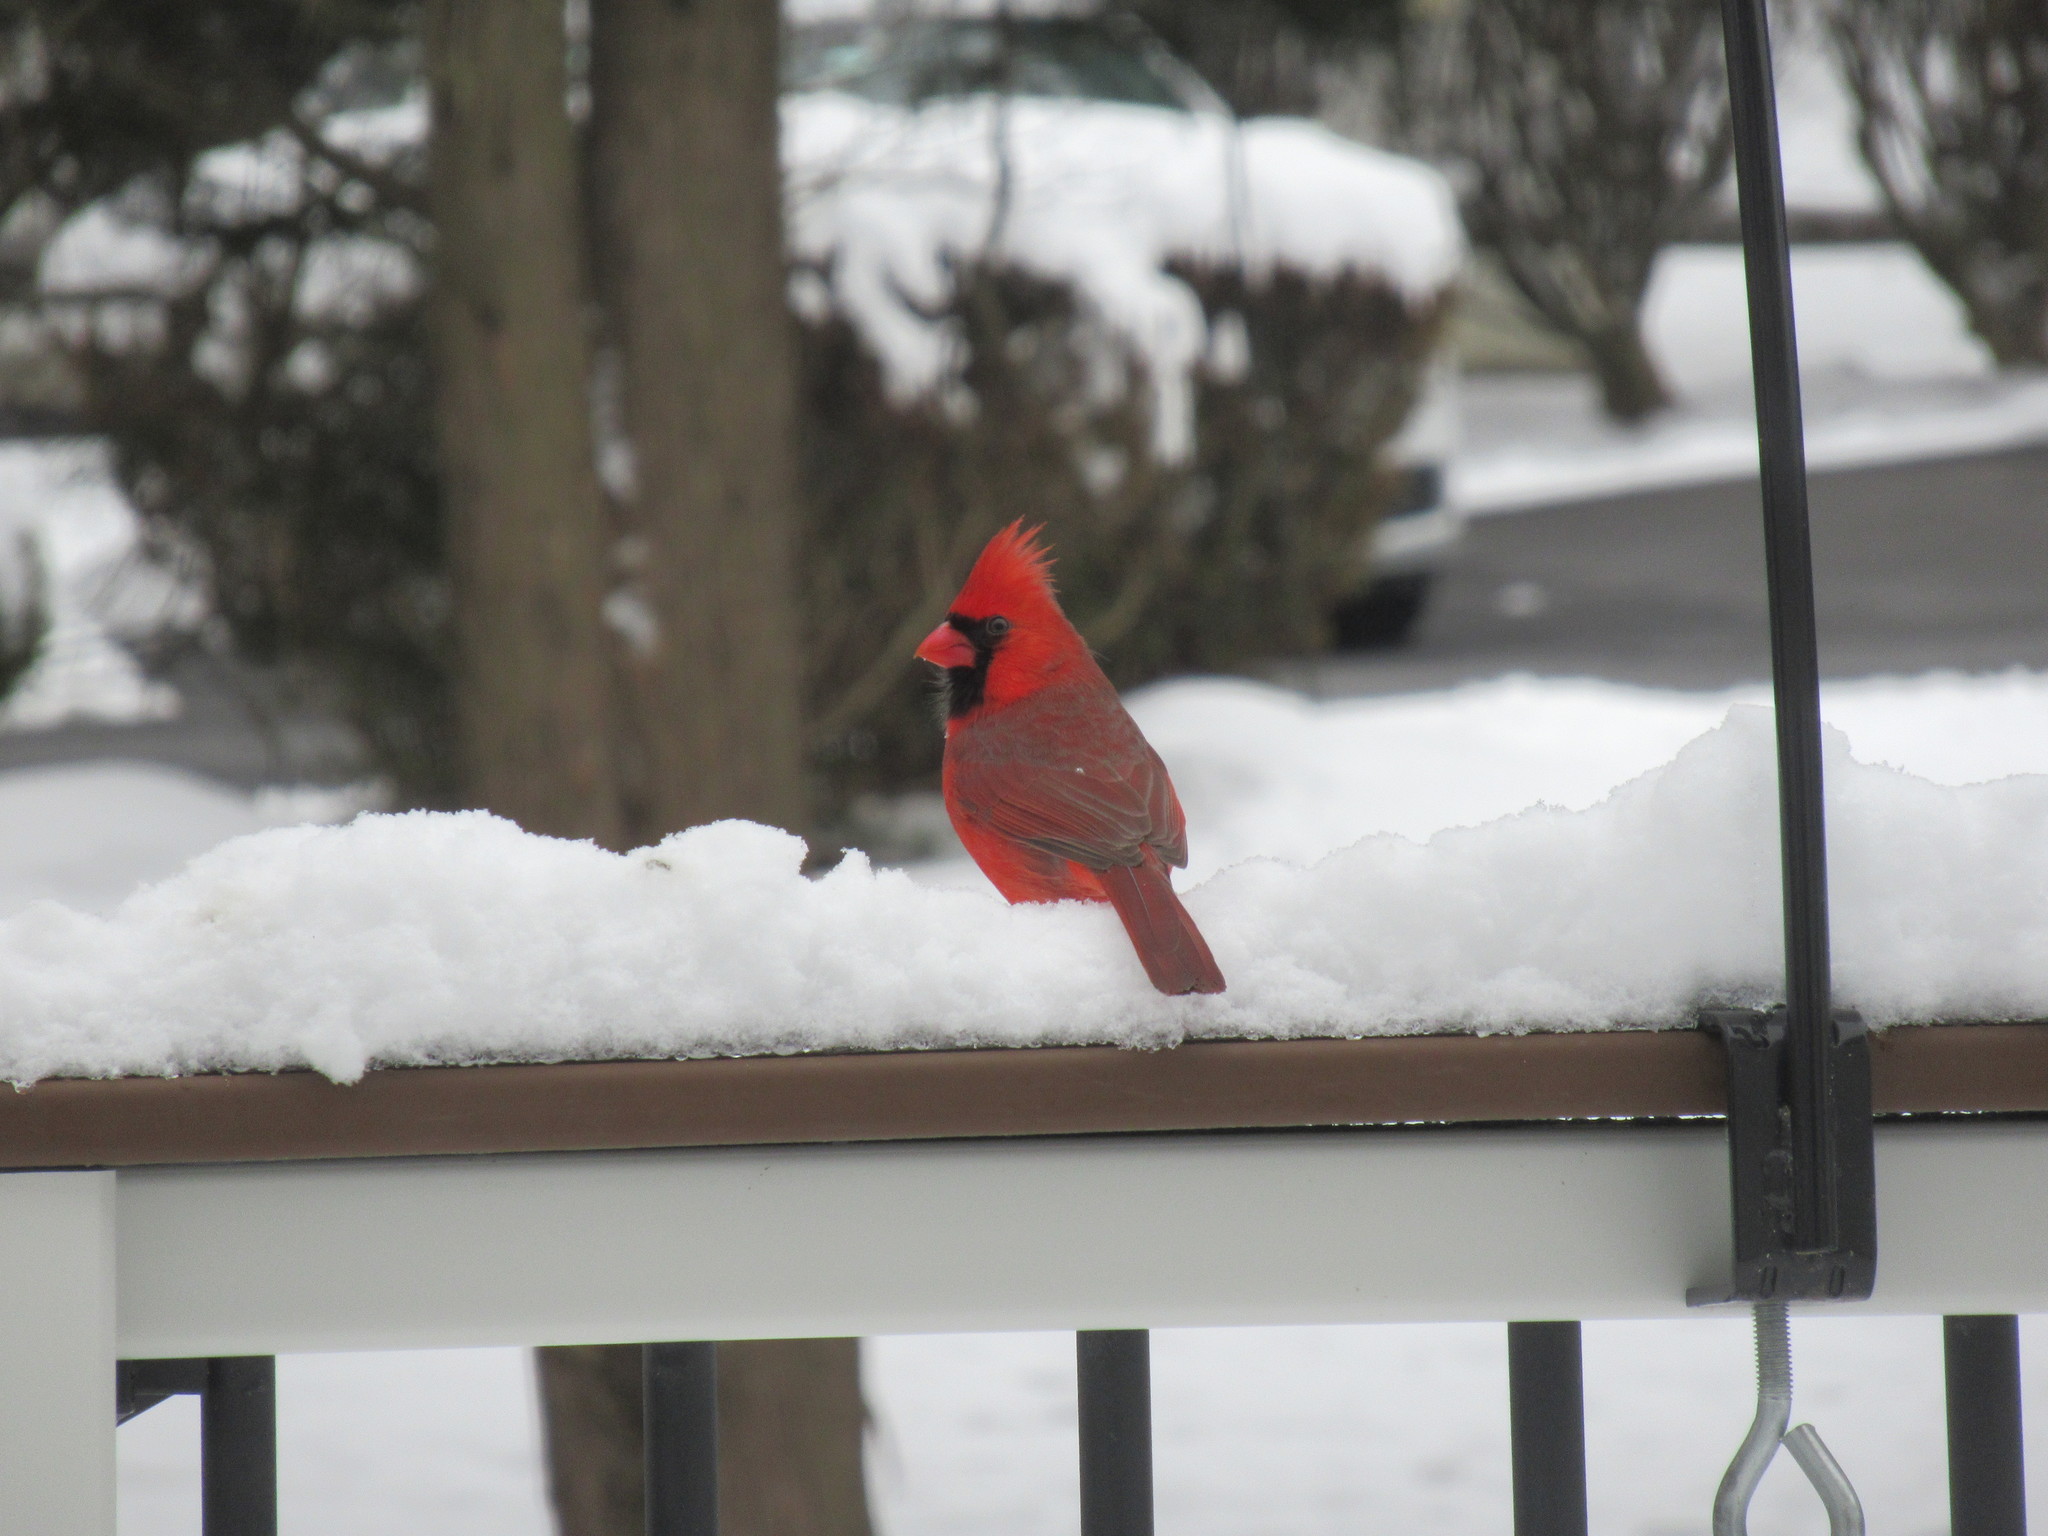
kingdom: Animalia
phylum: Chordata
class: Aves
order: Passeriformes
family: Cardinalidae
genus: Cardinalis
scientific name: Cardinalis cardinalis
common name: Northern cardinal
